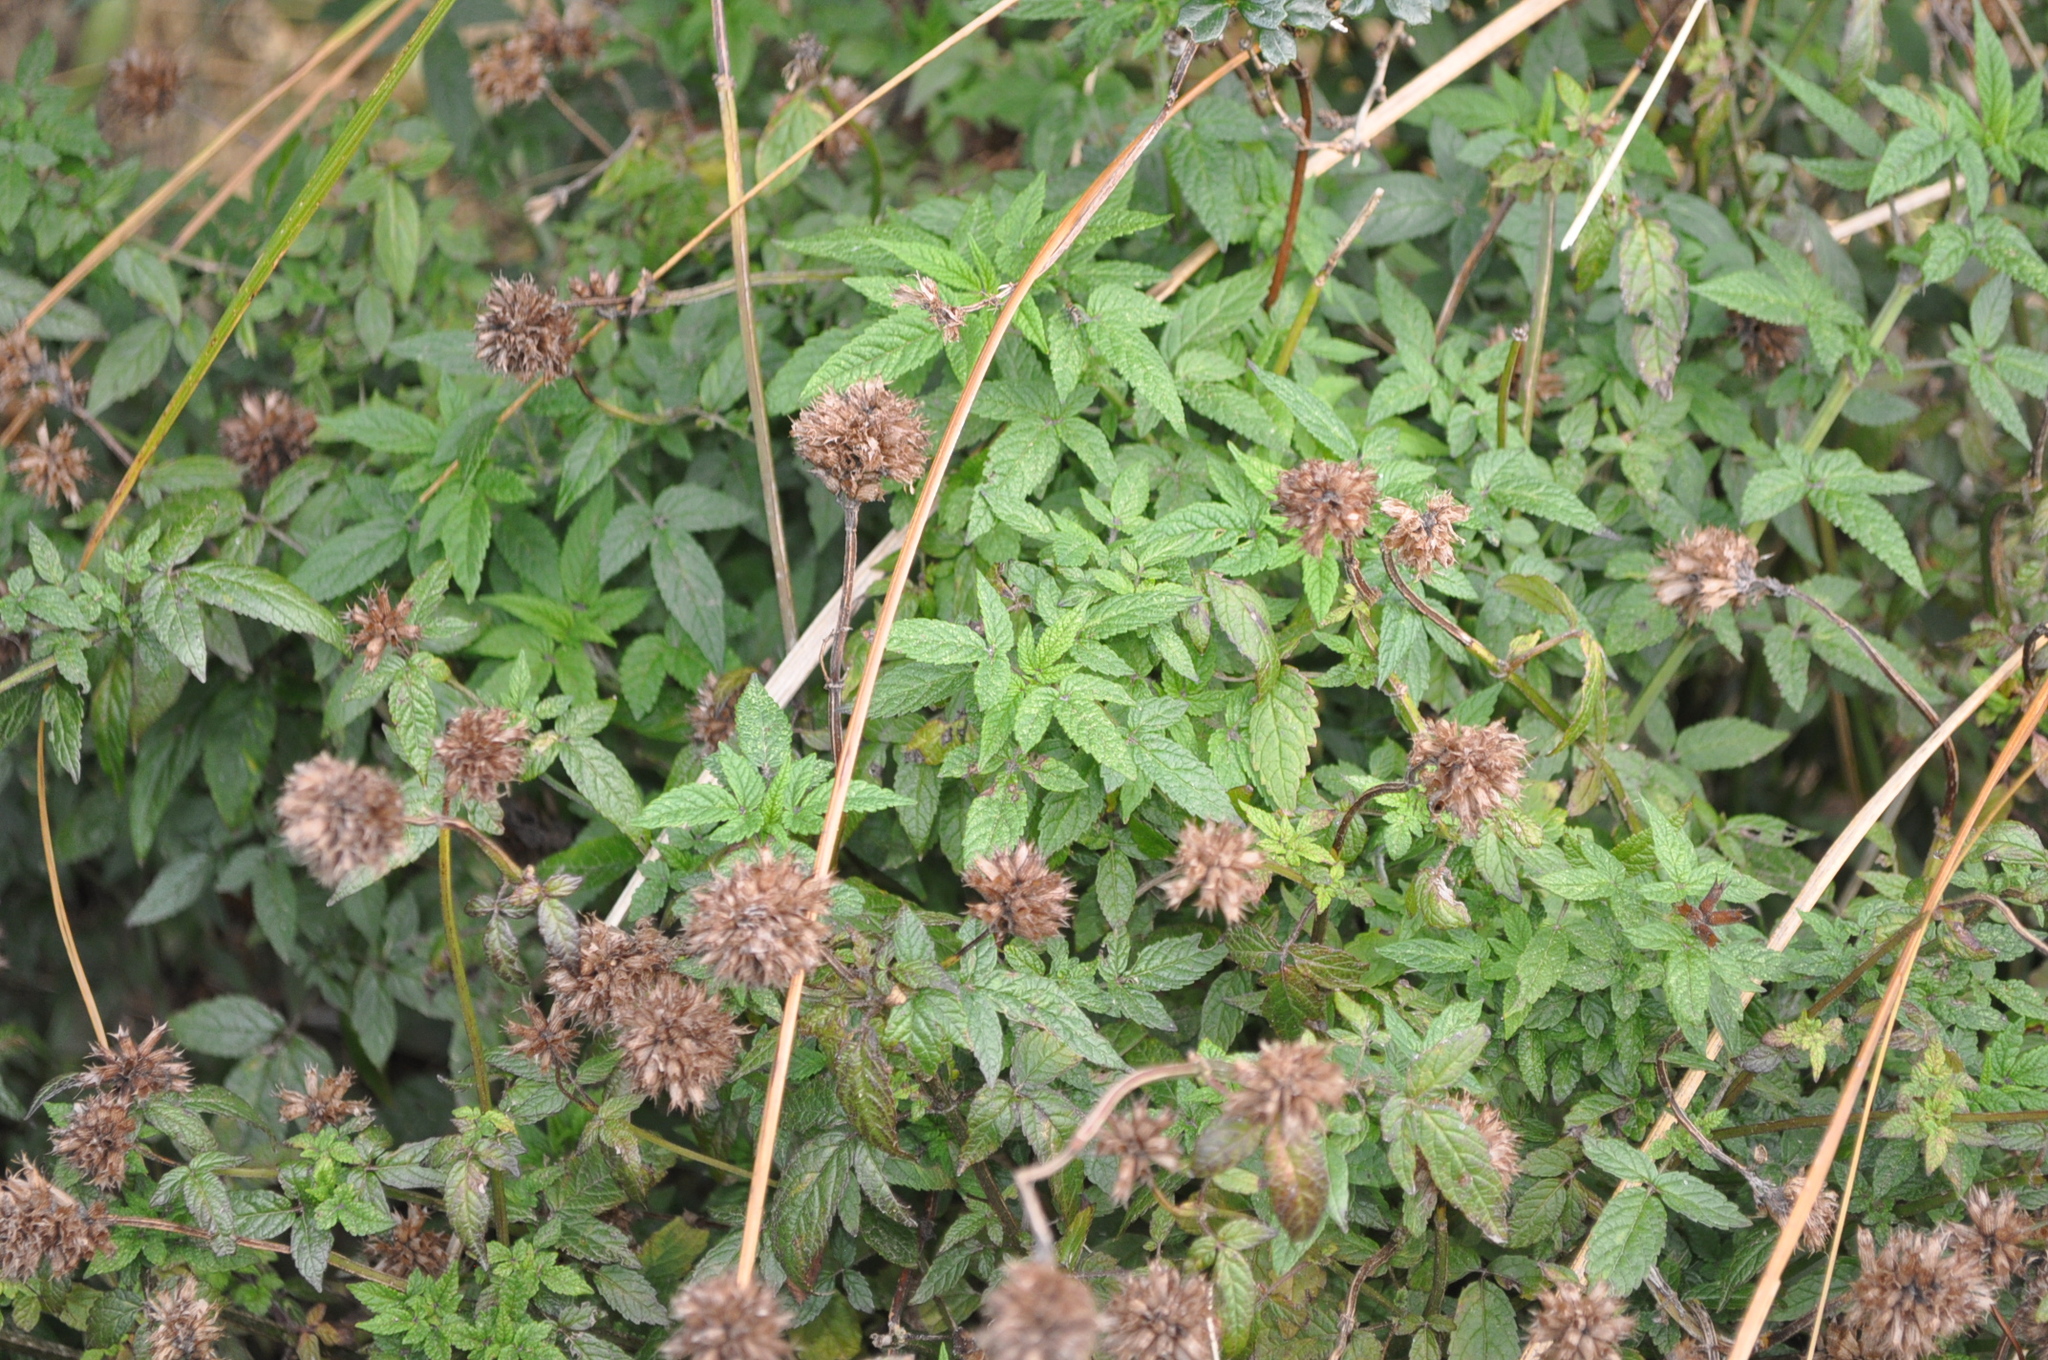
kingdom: Plantae
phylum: Tracheophyta
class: Magnoliopsida
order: Lamiales
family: Lamiaceae
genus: Cedronella
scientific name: Cedronella canariensis
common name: Canary islands balm
